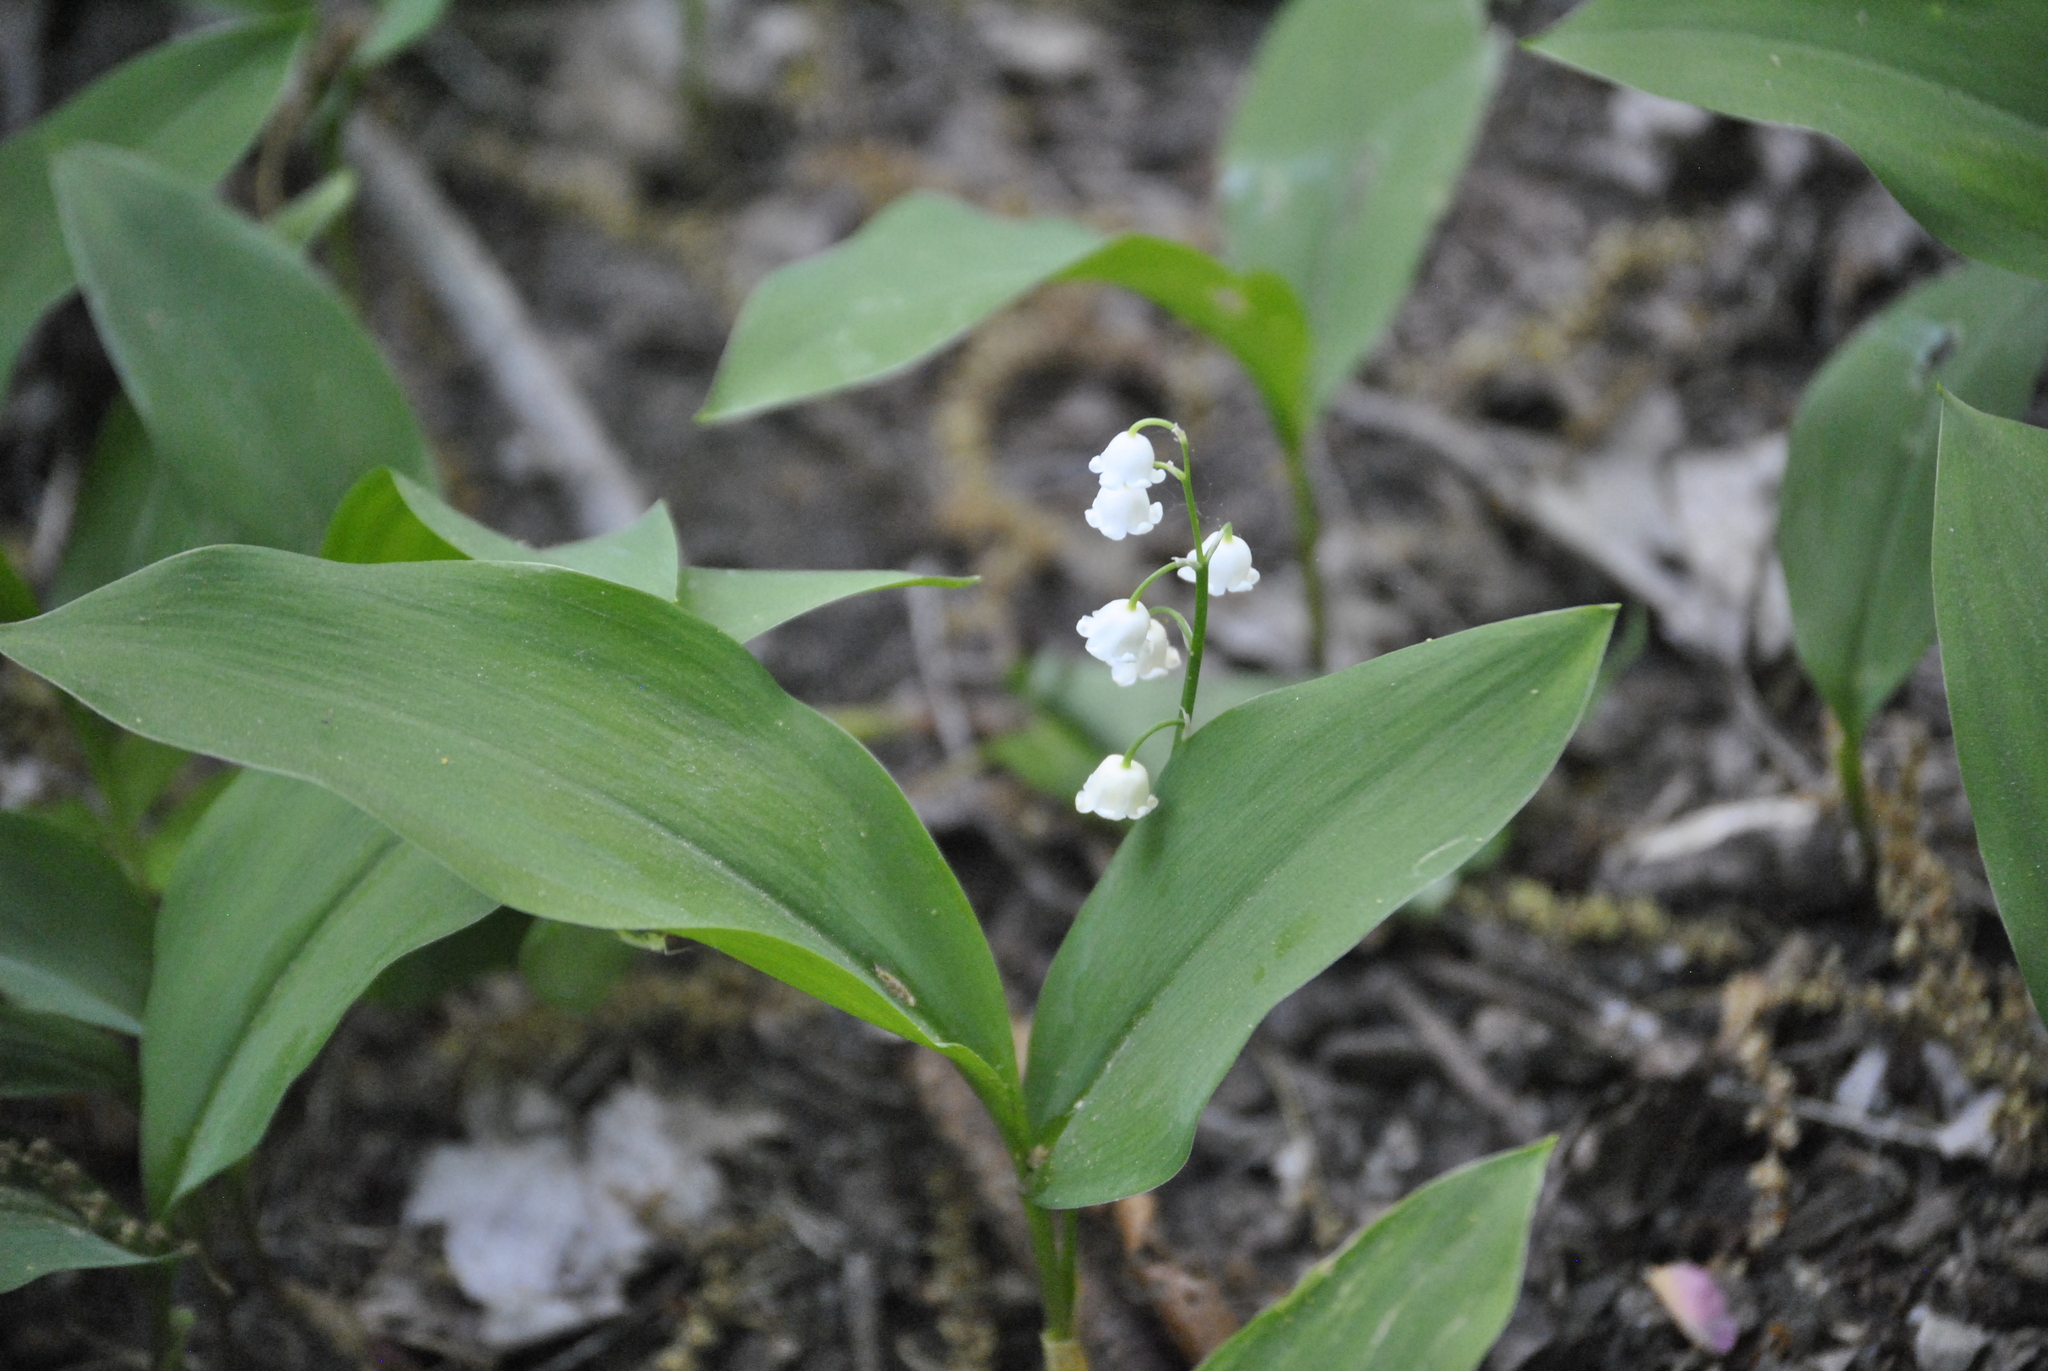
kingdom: Plantae
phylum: Tracheophyta
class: Liliopsida
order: Asparagales
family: Asparagaceae
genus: Convallaria
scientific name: Convallaria majalis
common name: Lily-of-the-valley
